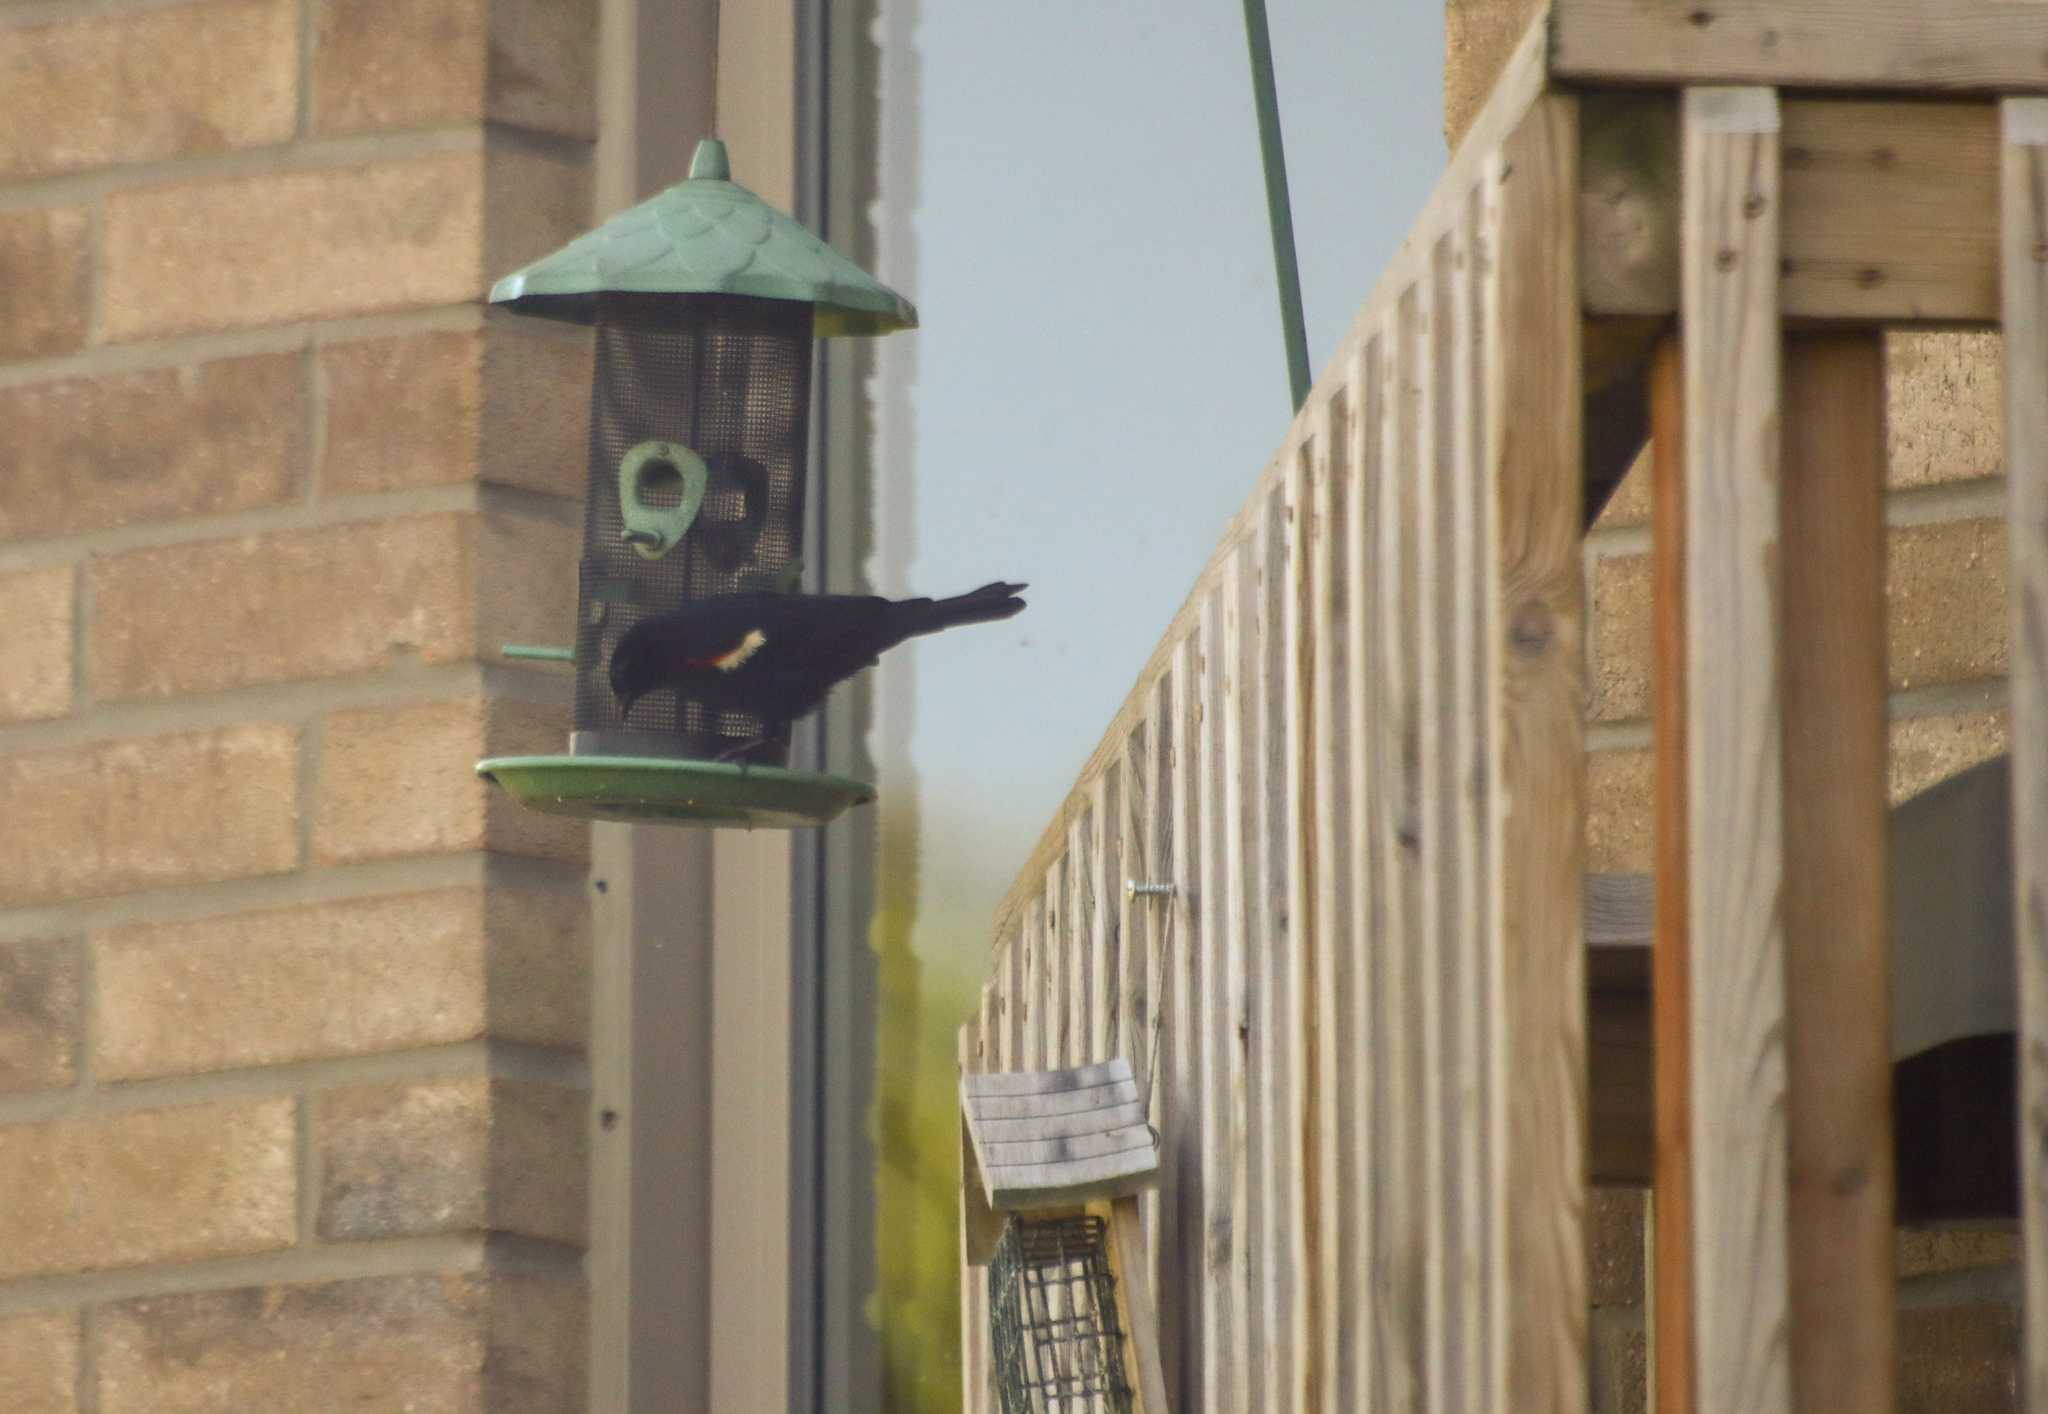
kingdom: Animalia
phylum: Chordata
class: Aves
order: Passeriformes
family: Icteridae
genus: Agelaius
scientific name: Agelaius phoeniceus
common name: Red-winged blackbird
